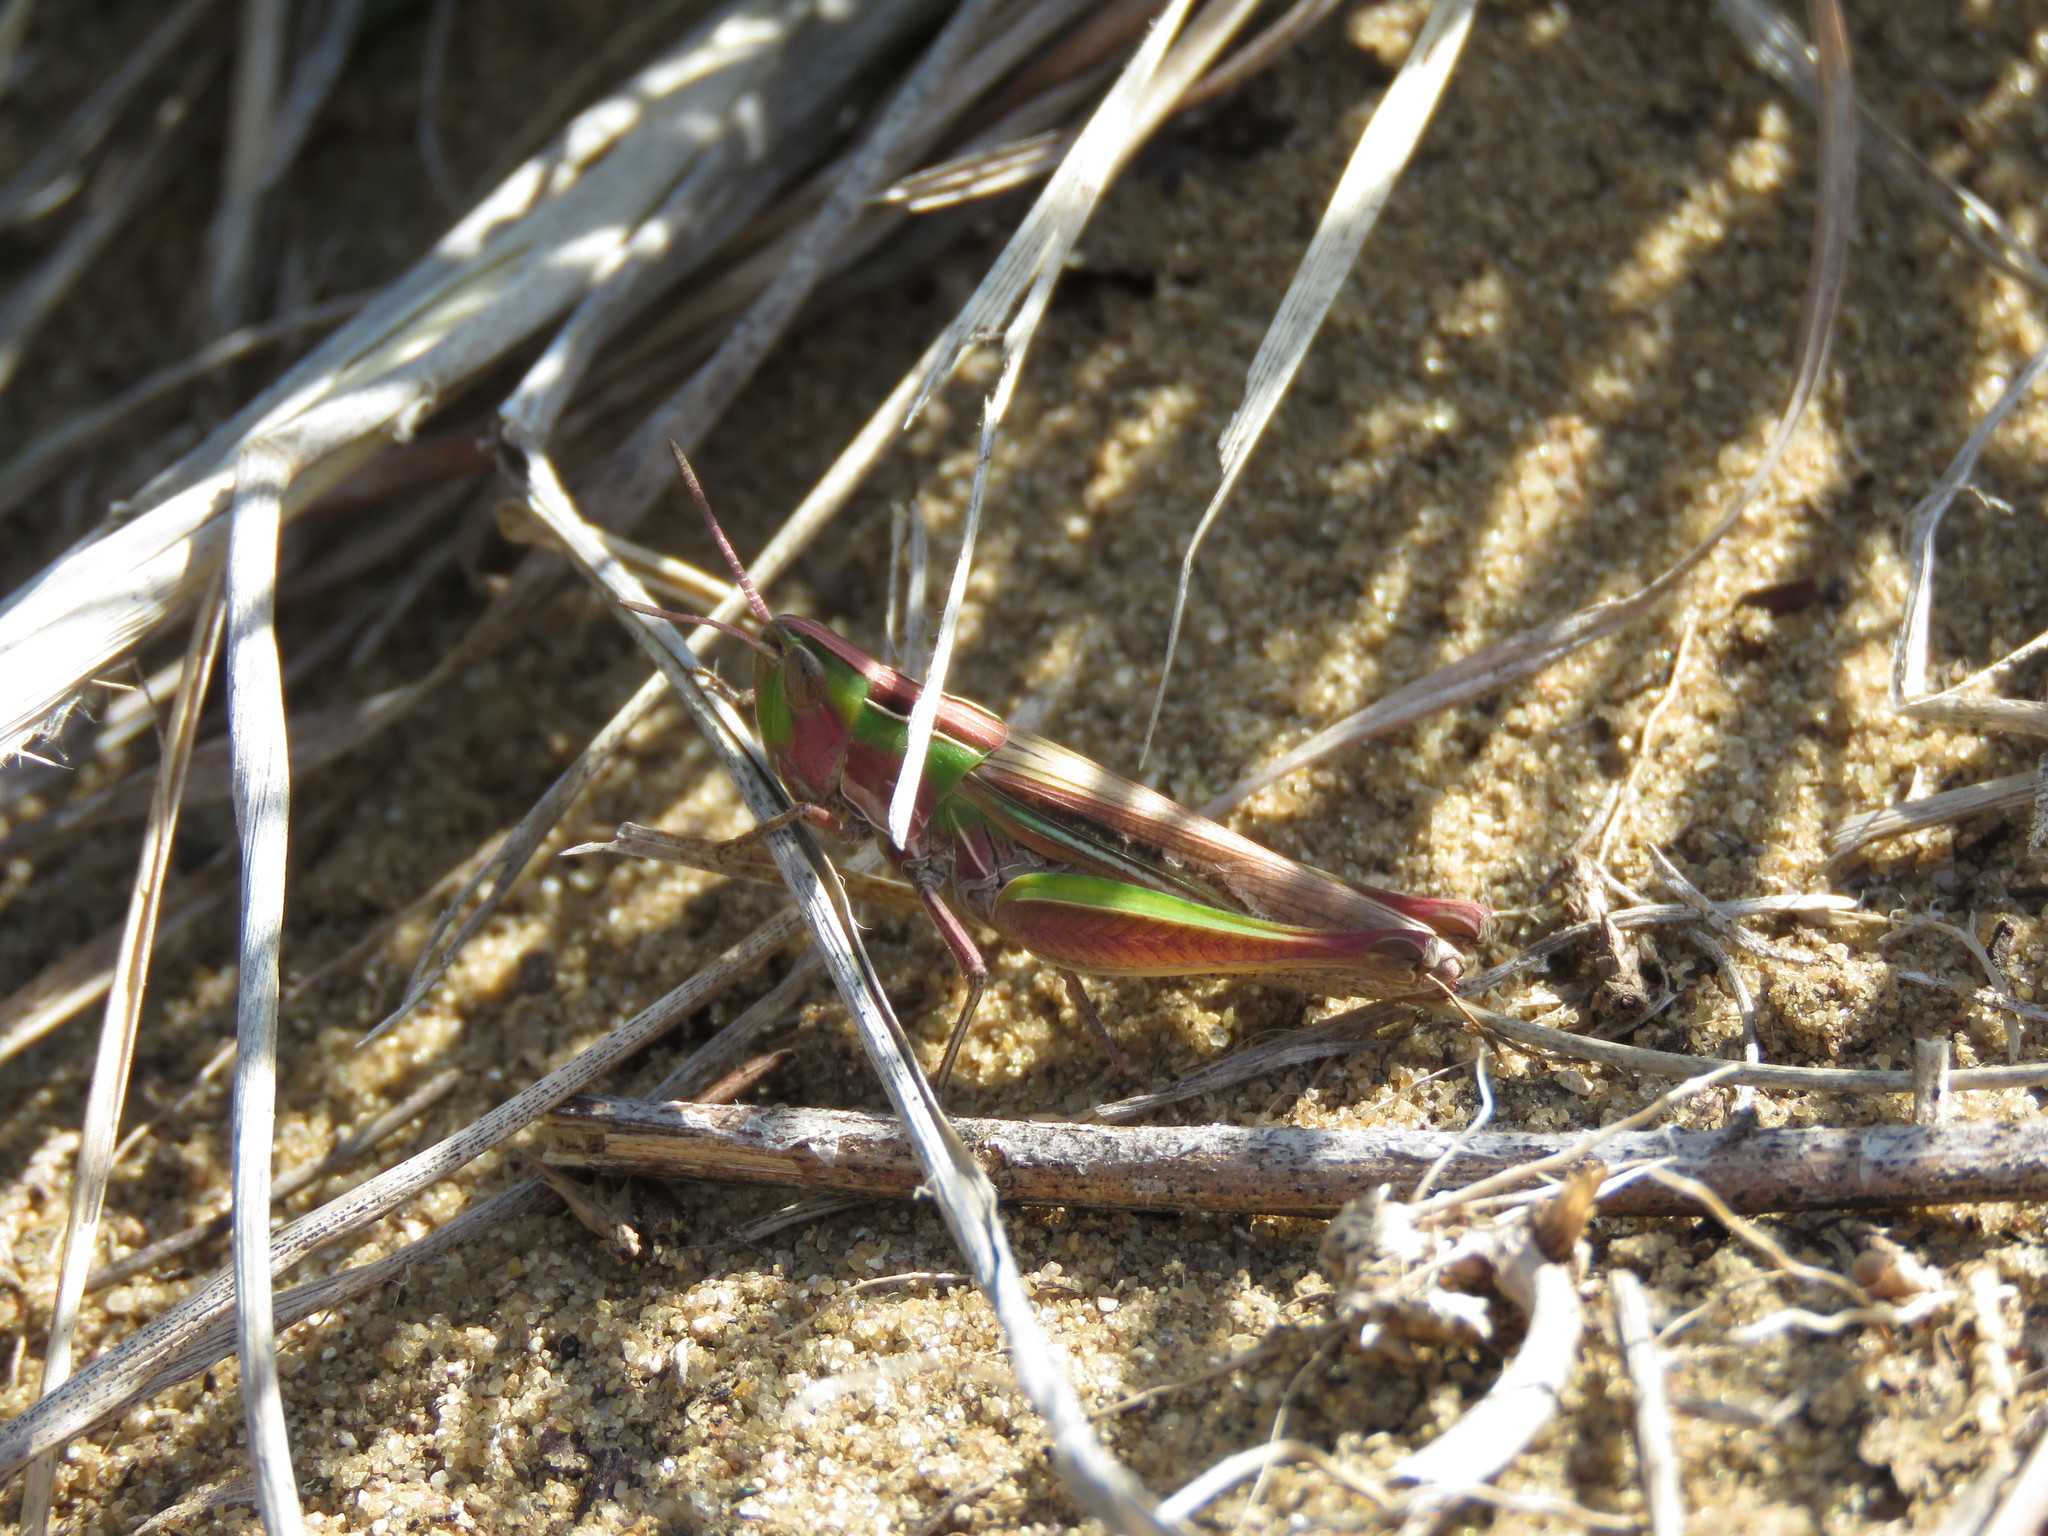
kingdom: Animalia
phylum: Arthropoda
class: Insecta
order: Orthoptera
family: Acrididae
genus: Eritettix
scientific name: Eritettix simplex
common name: Velvet-striped grasshopper
